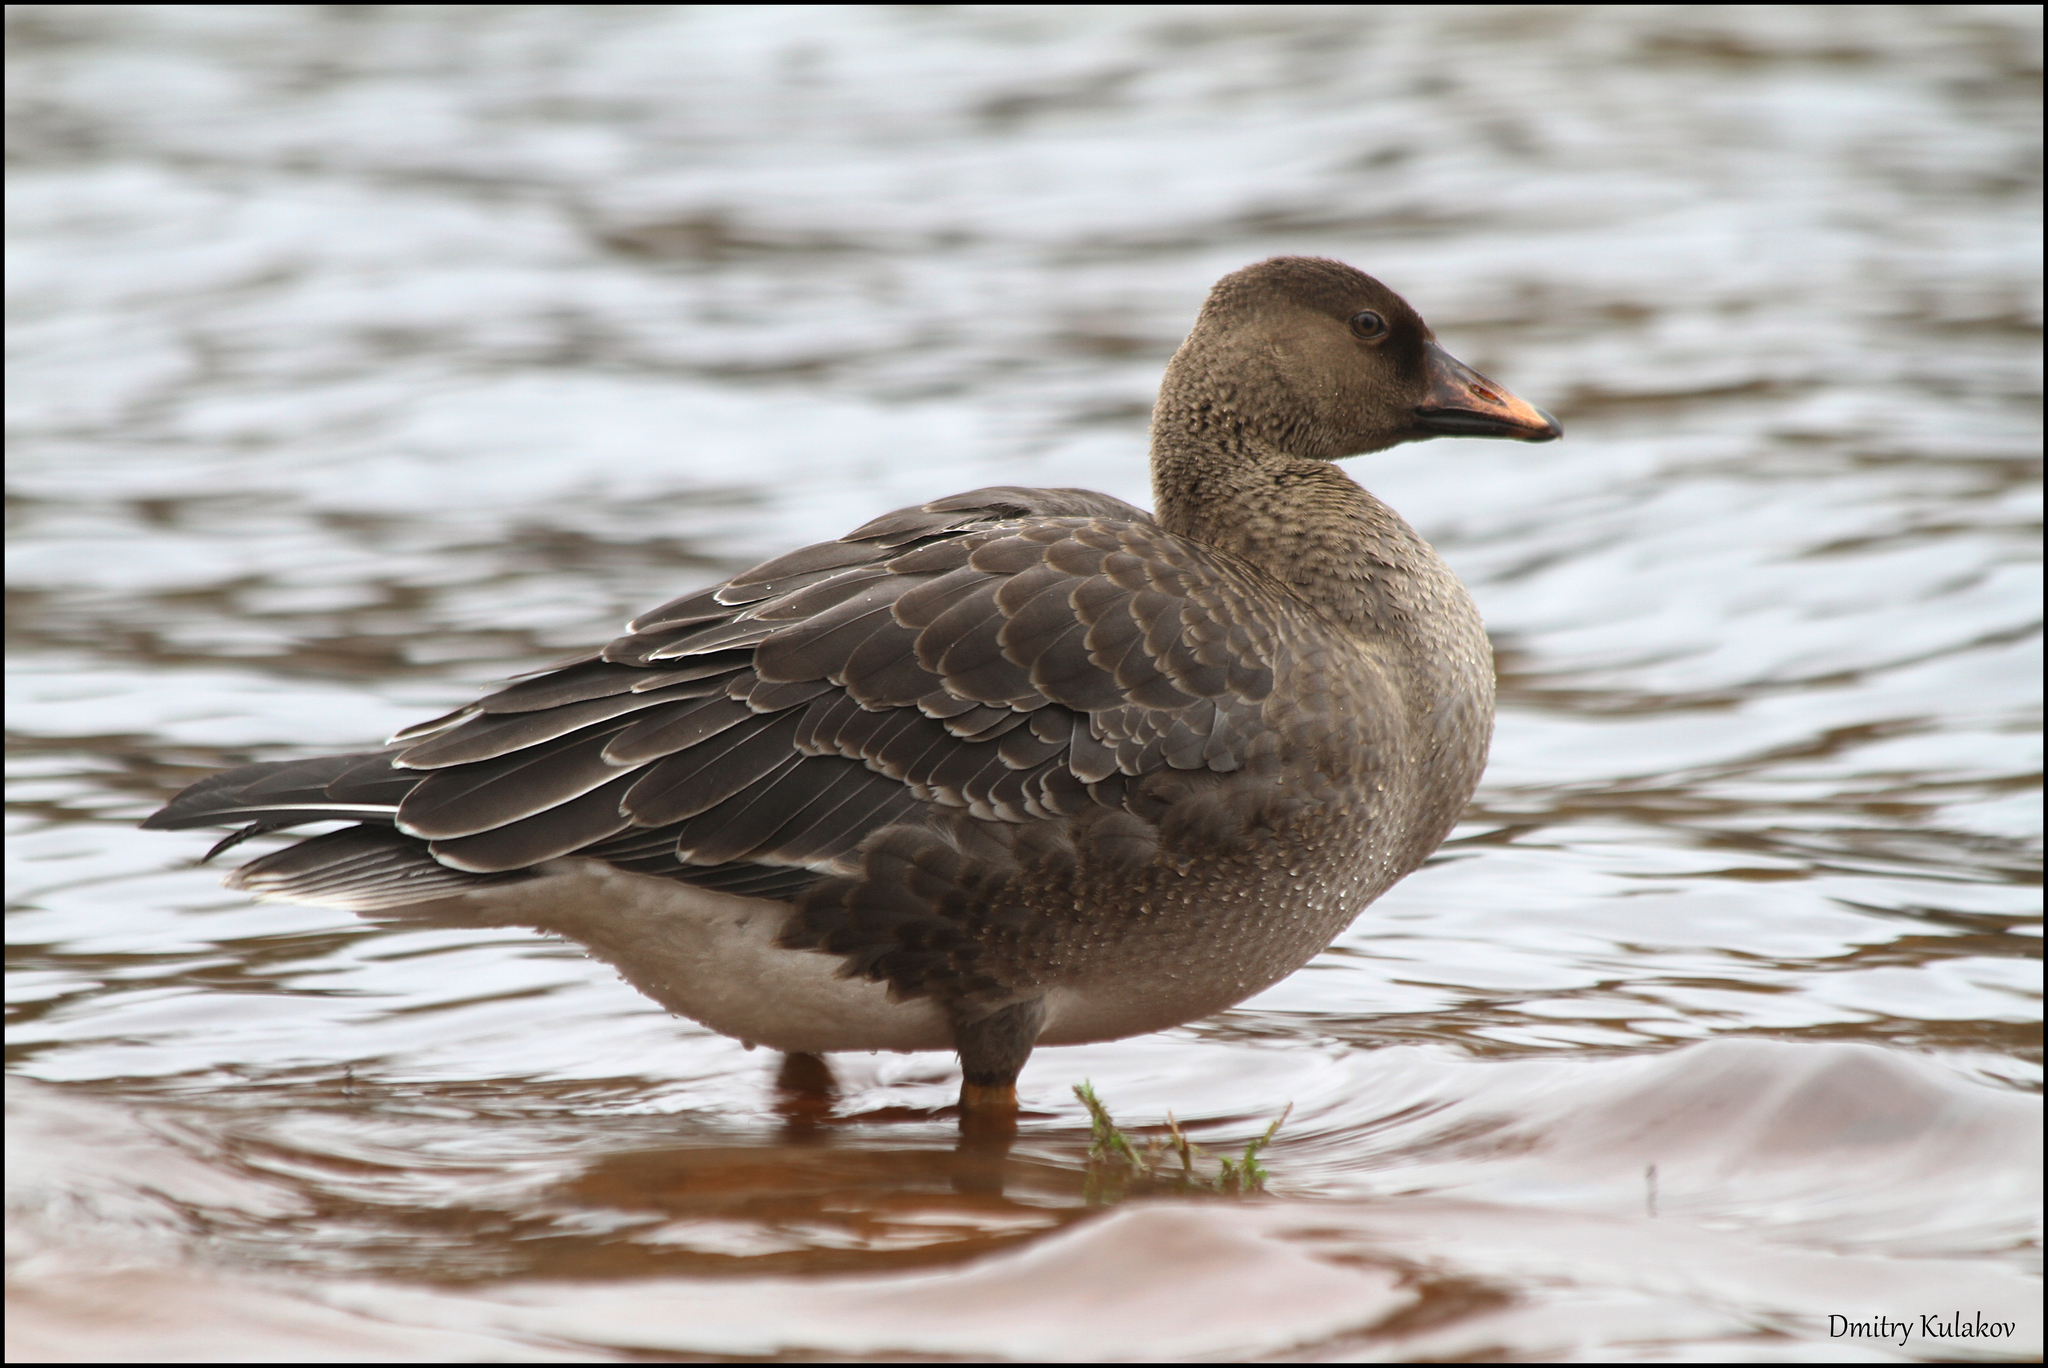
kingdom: Animalia
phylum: Chordata
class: Aves
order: Anseriformes
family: Anatidae
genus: Anser
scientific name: Anser fabalis
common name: Bean goose
